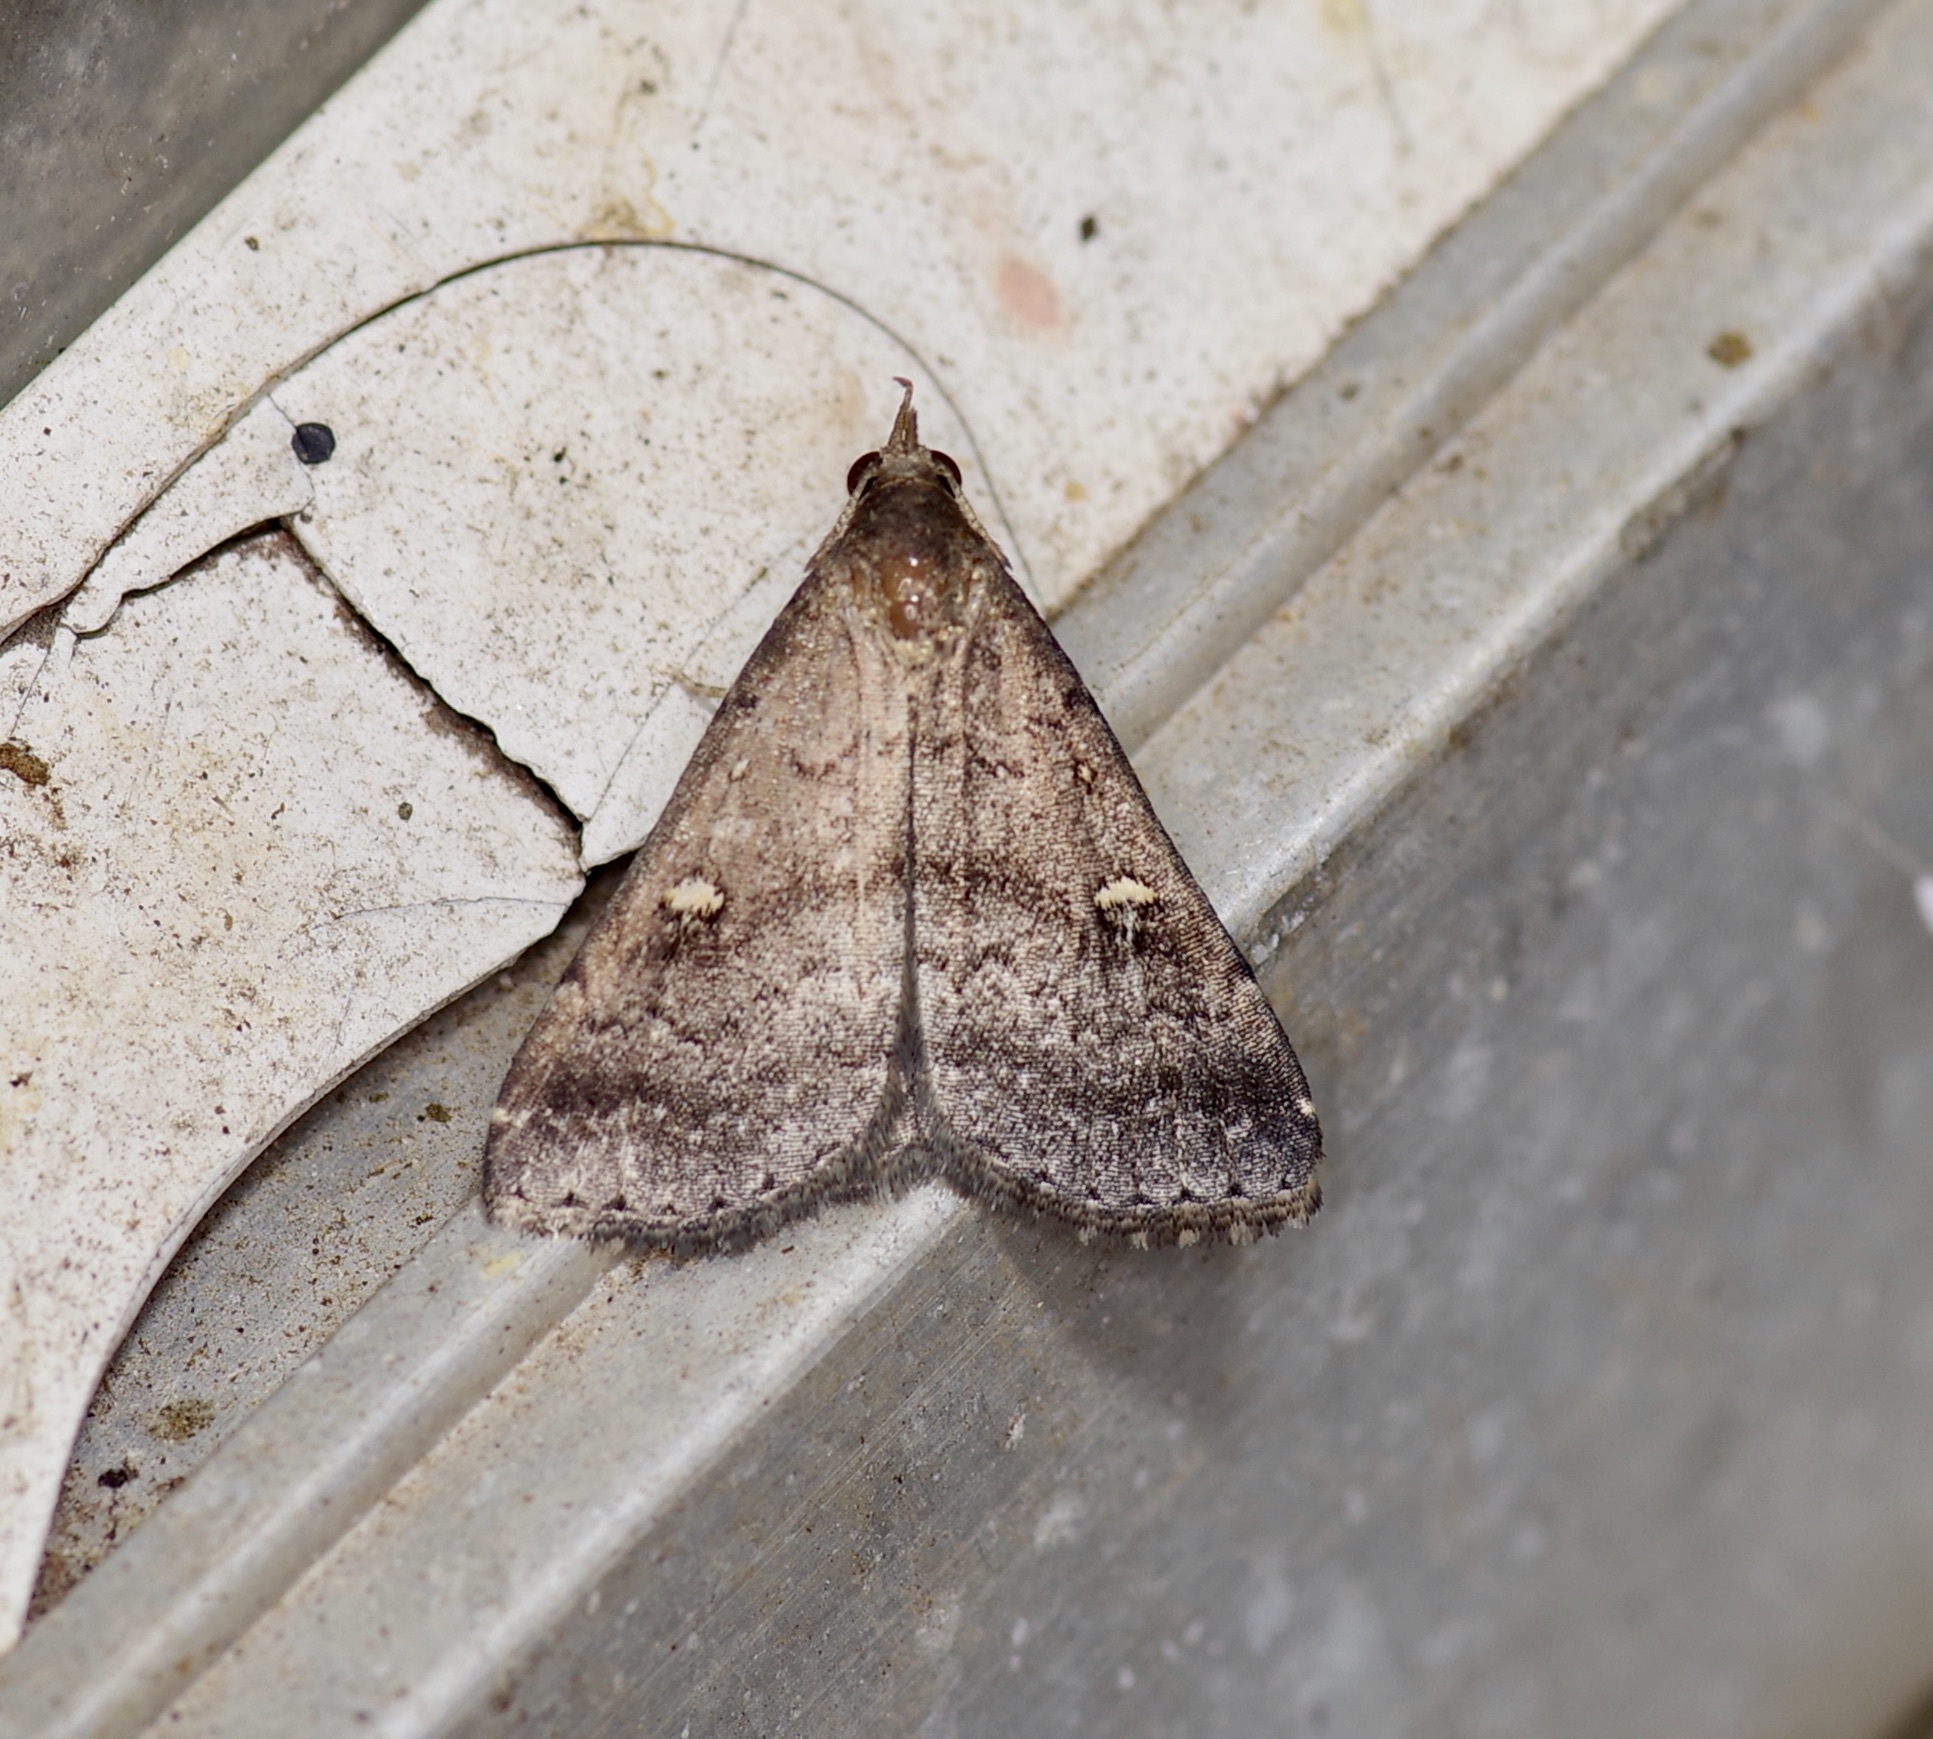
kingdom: Animalia
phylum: Arthropoda
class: Insecta
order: Lepidoptera
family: Erebidae
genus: Tetanolita
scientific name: Tetanolita mynesalis
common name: Smoky tetanolita moth
